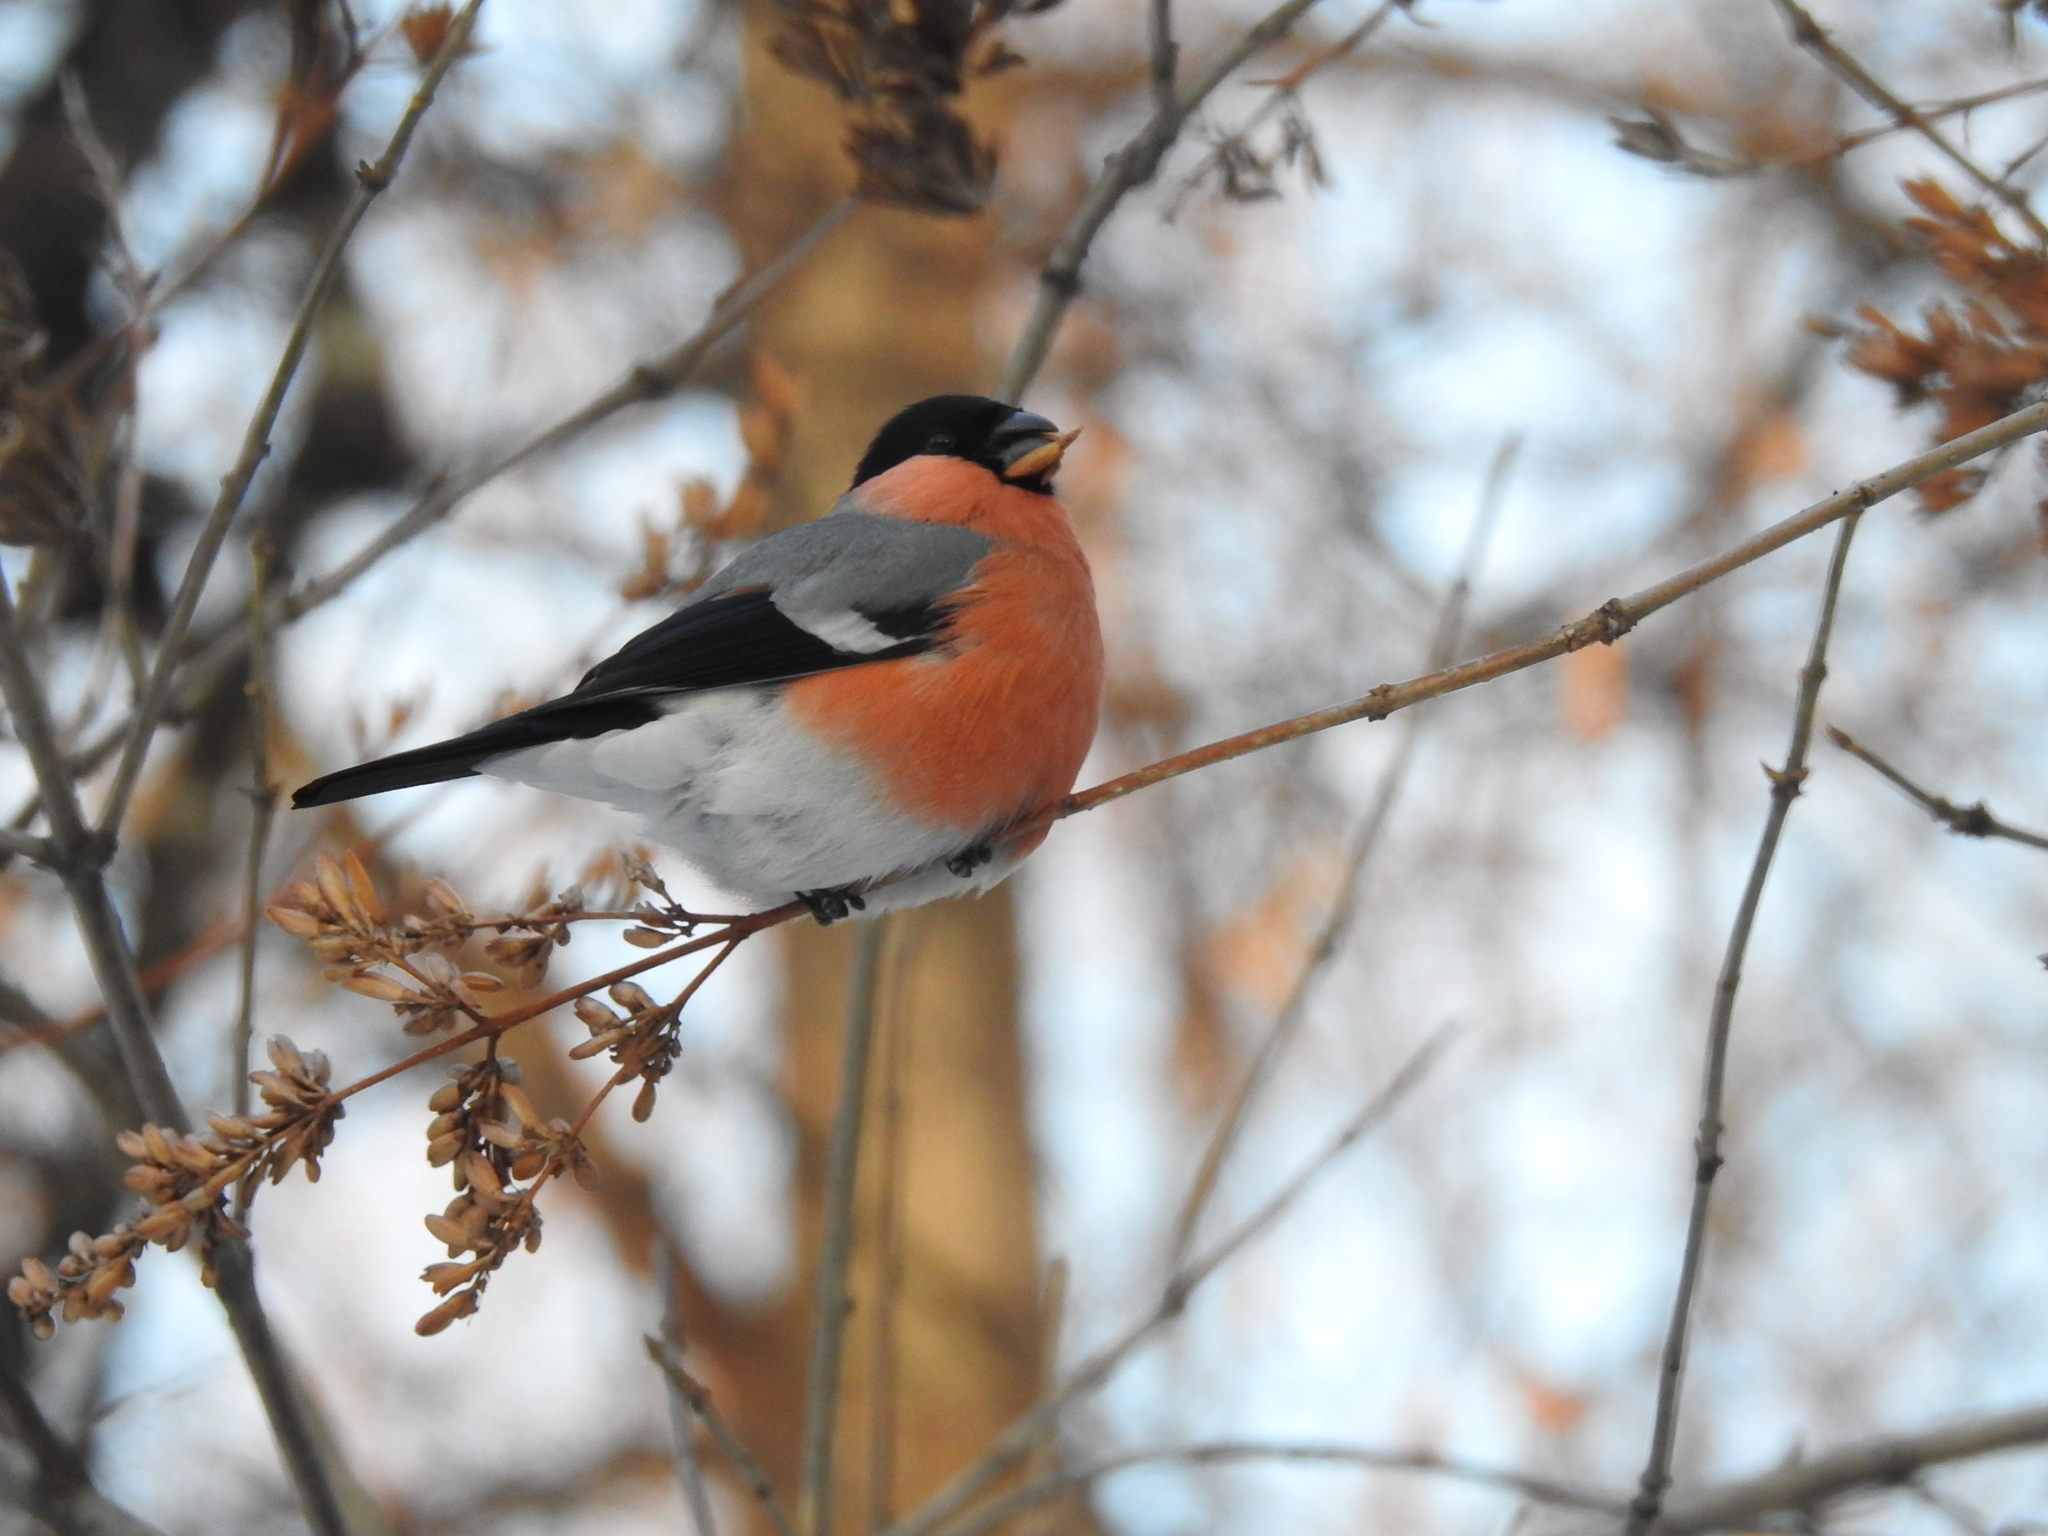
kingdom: Animalia
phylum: Chordata
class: Aves
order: Passeriformes
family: Fringillidae
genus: Pyrrhula
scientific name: Pyrrhula pyrrhula
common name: Eurasian bullfinch
